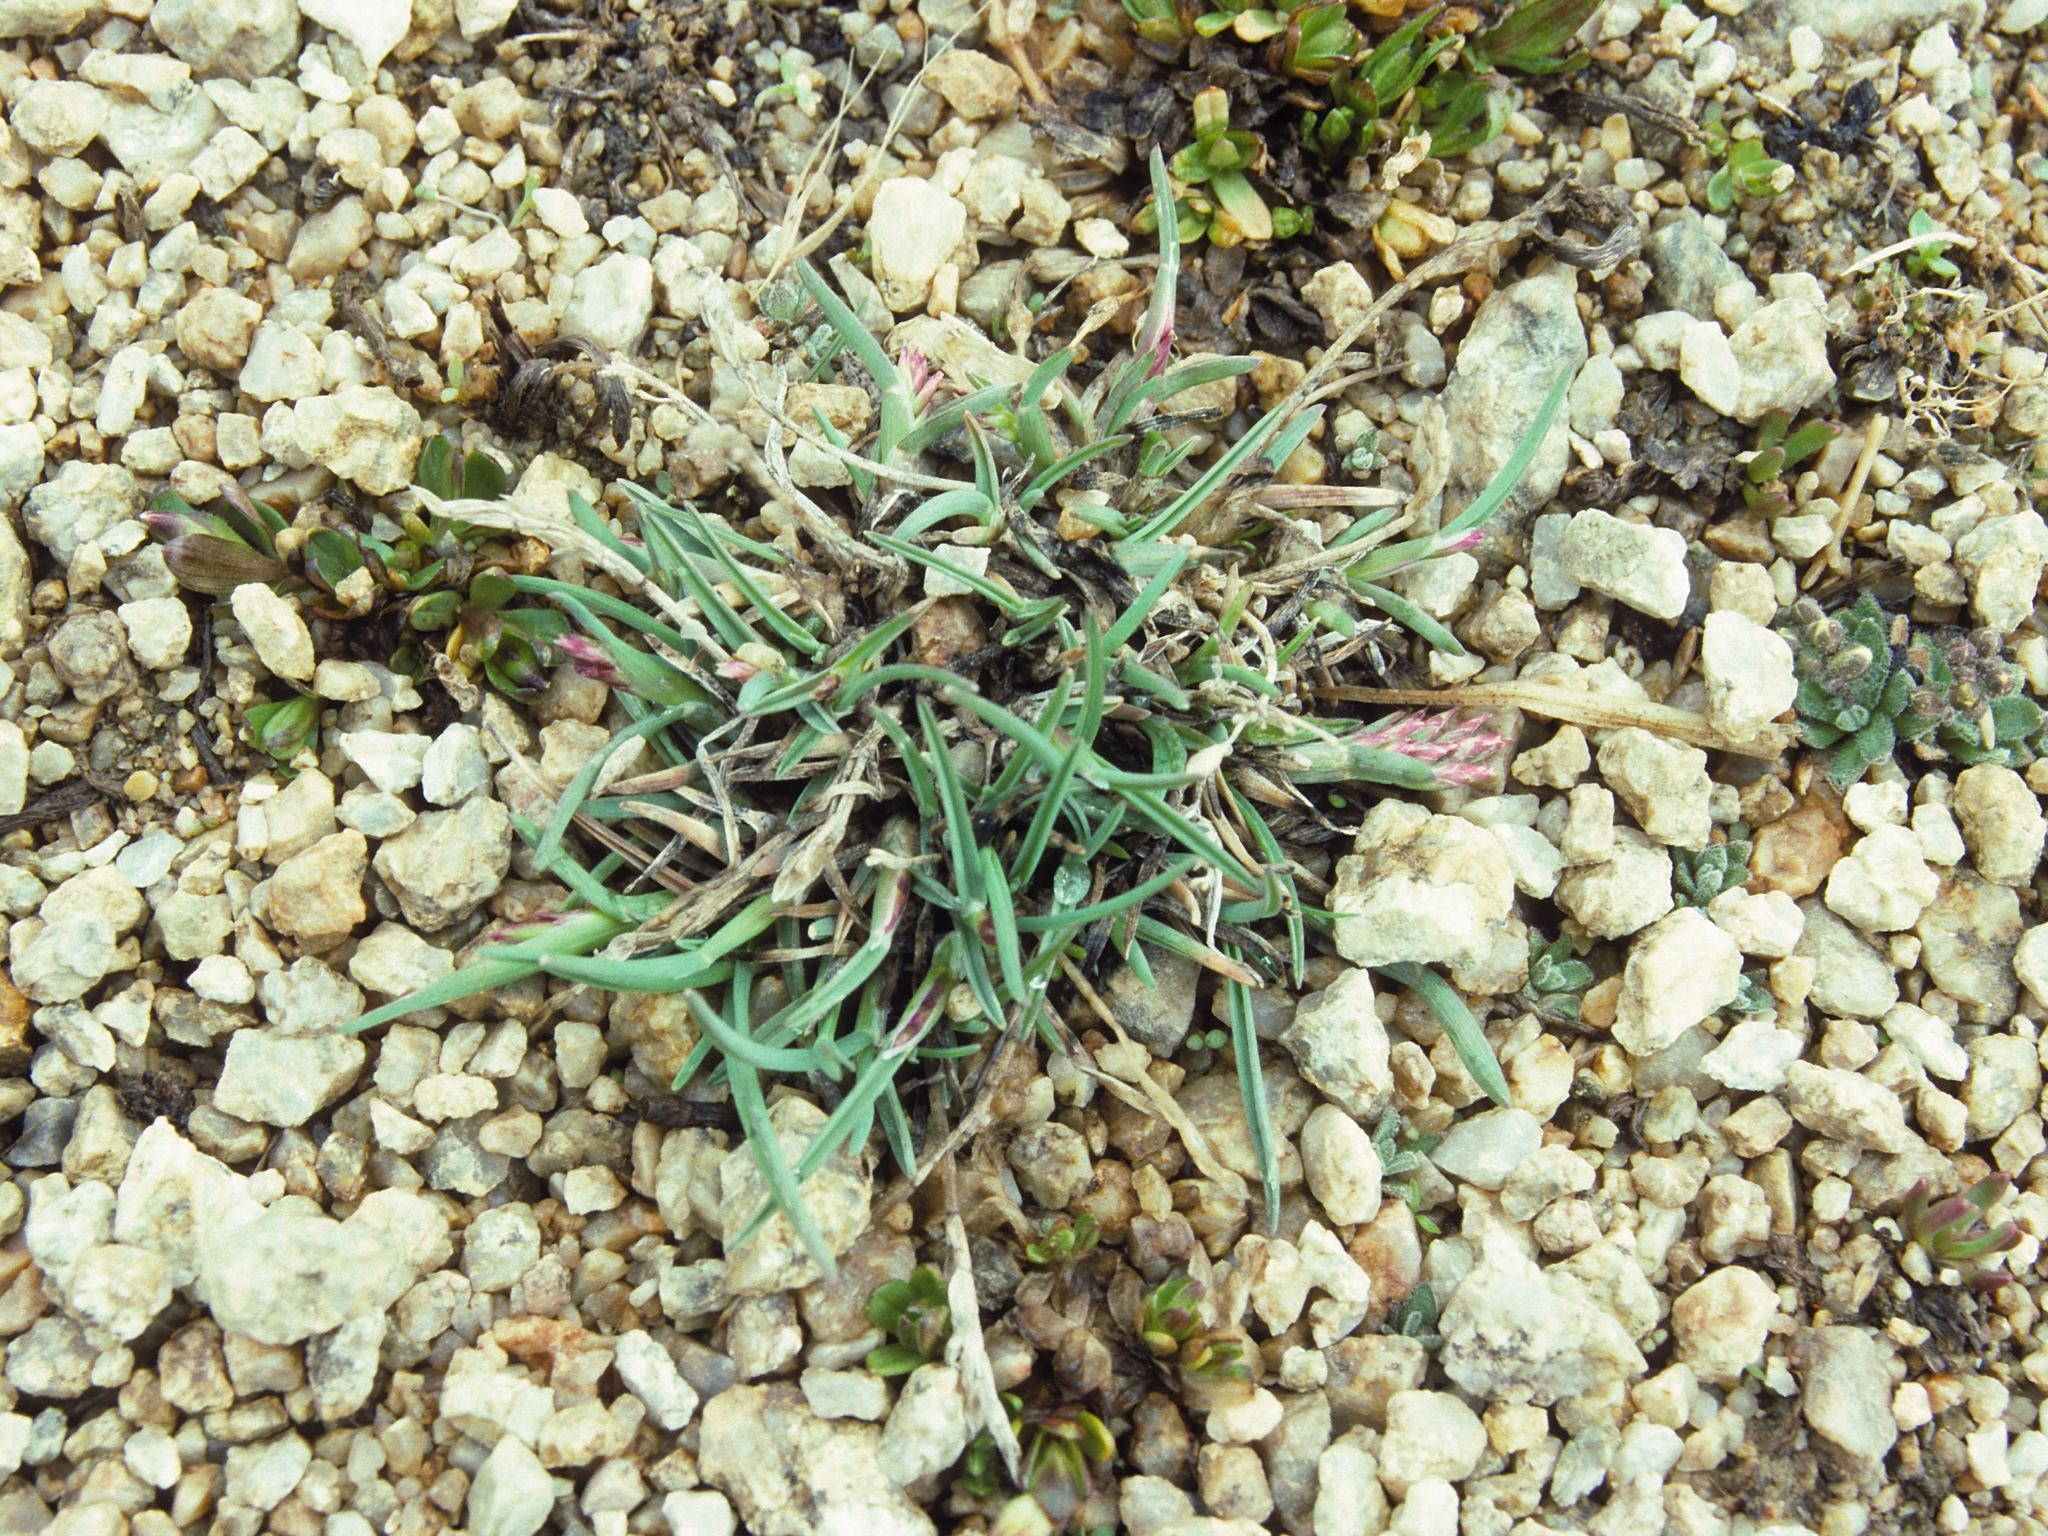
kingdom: Plantae
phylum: Tracheophyta
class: Liliopsida
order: Poales
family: Poaceae
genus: Poa
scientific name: Poa keckii
